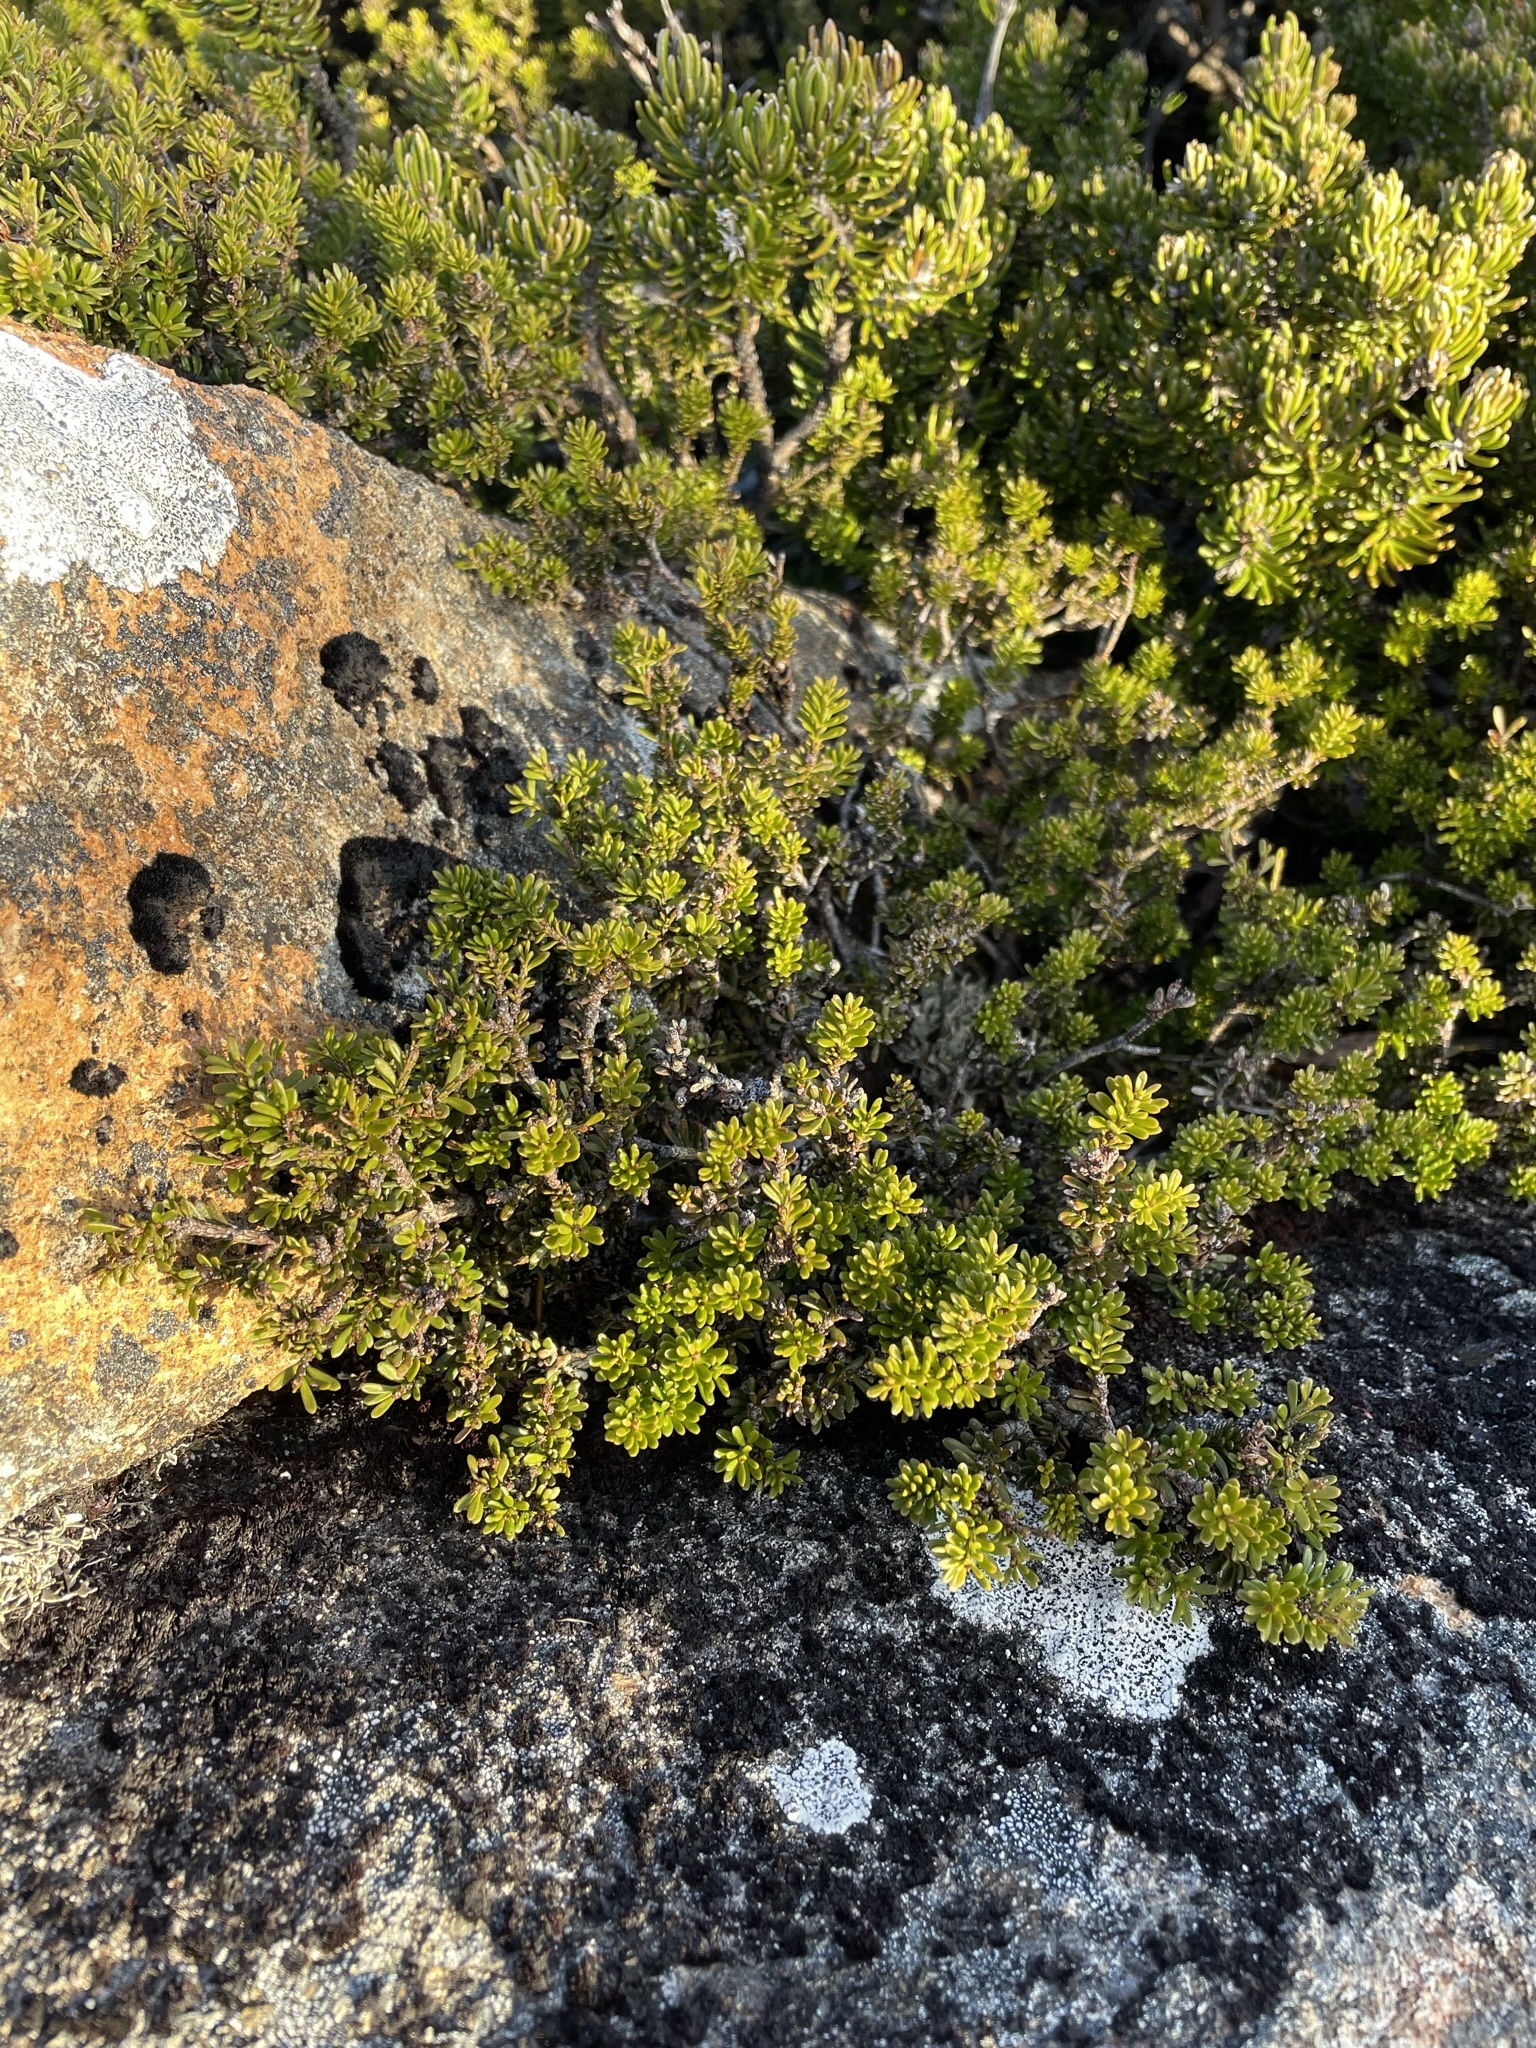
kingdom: Plantae
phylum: Tracheophyta
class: Pinopsida
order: Pinales
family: Podocarpaceae
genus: Podocarpus
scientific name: Podocarpus lawrencei
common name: Mountain plum pine
